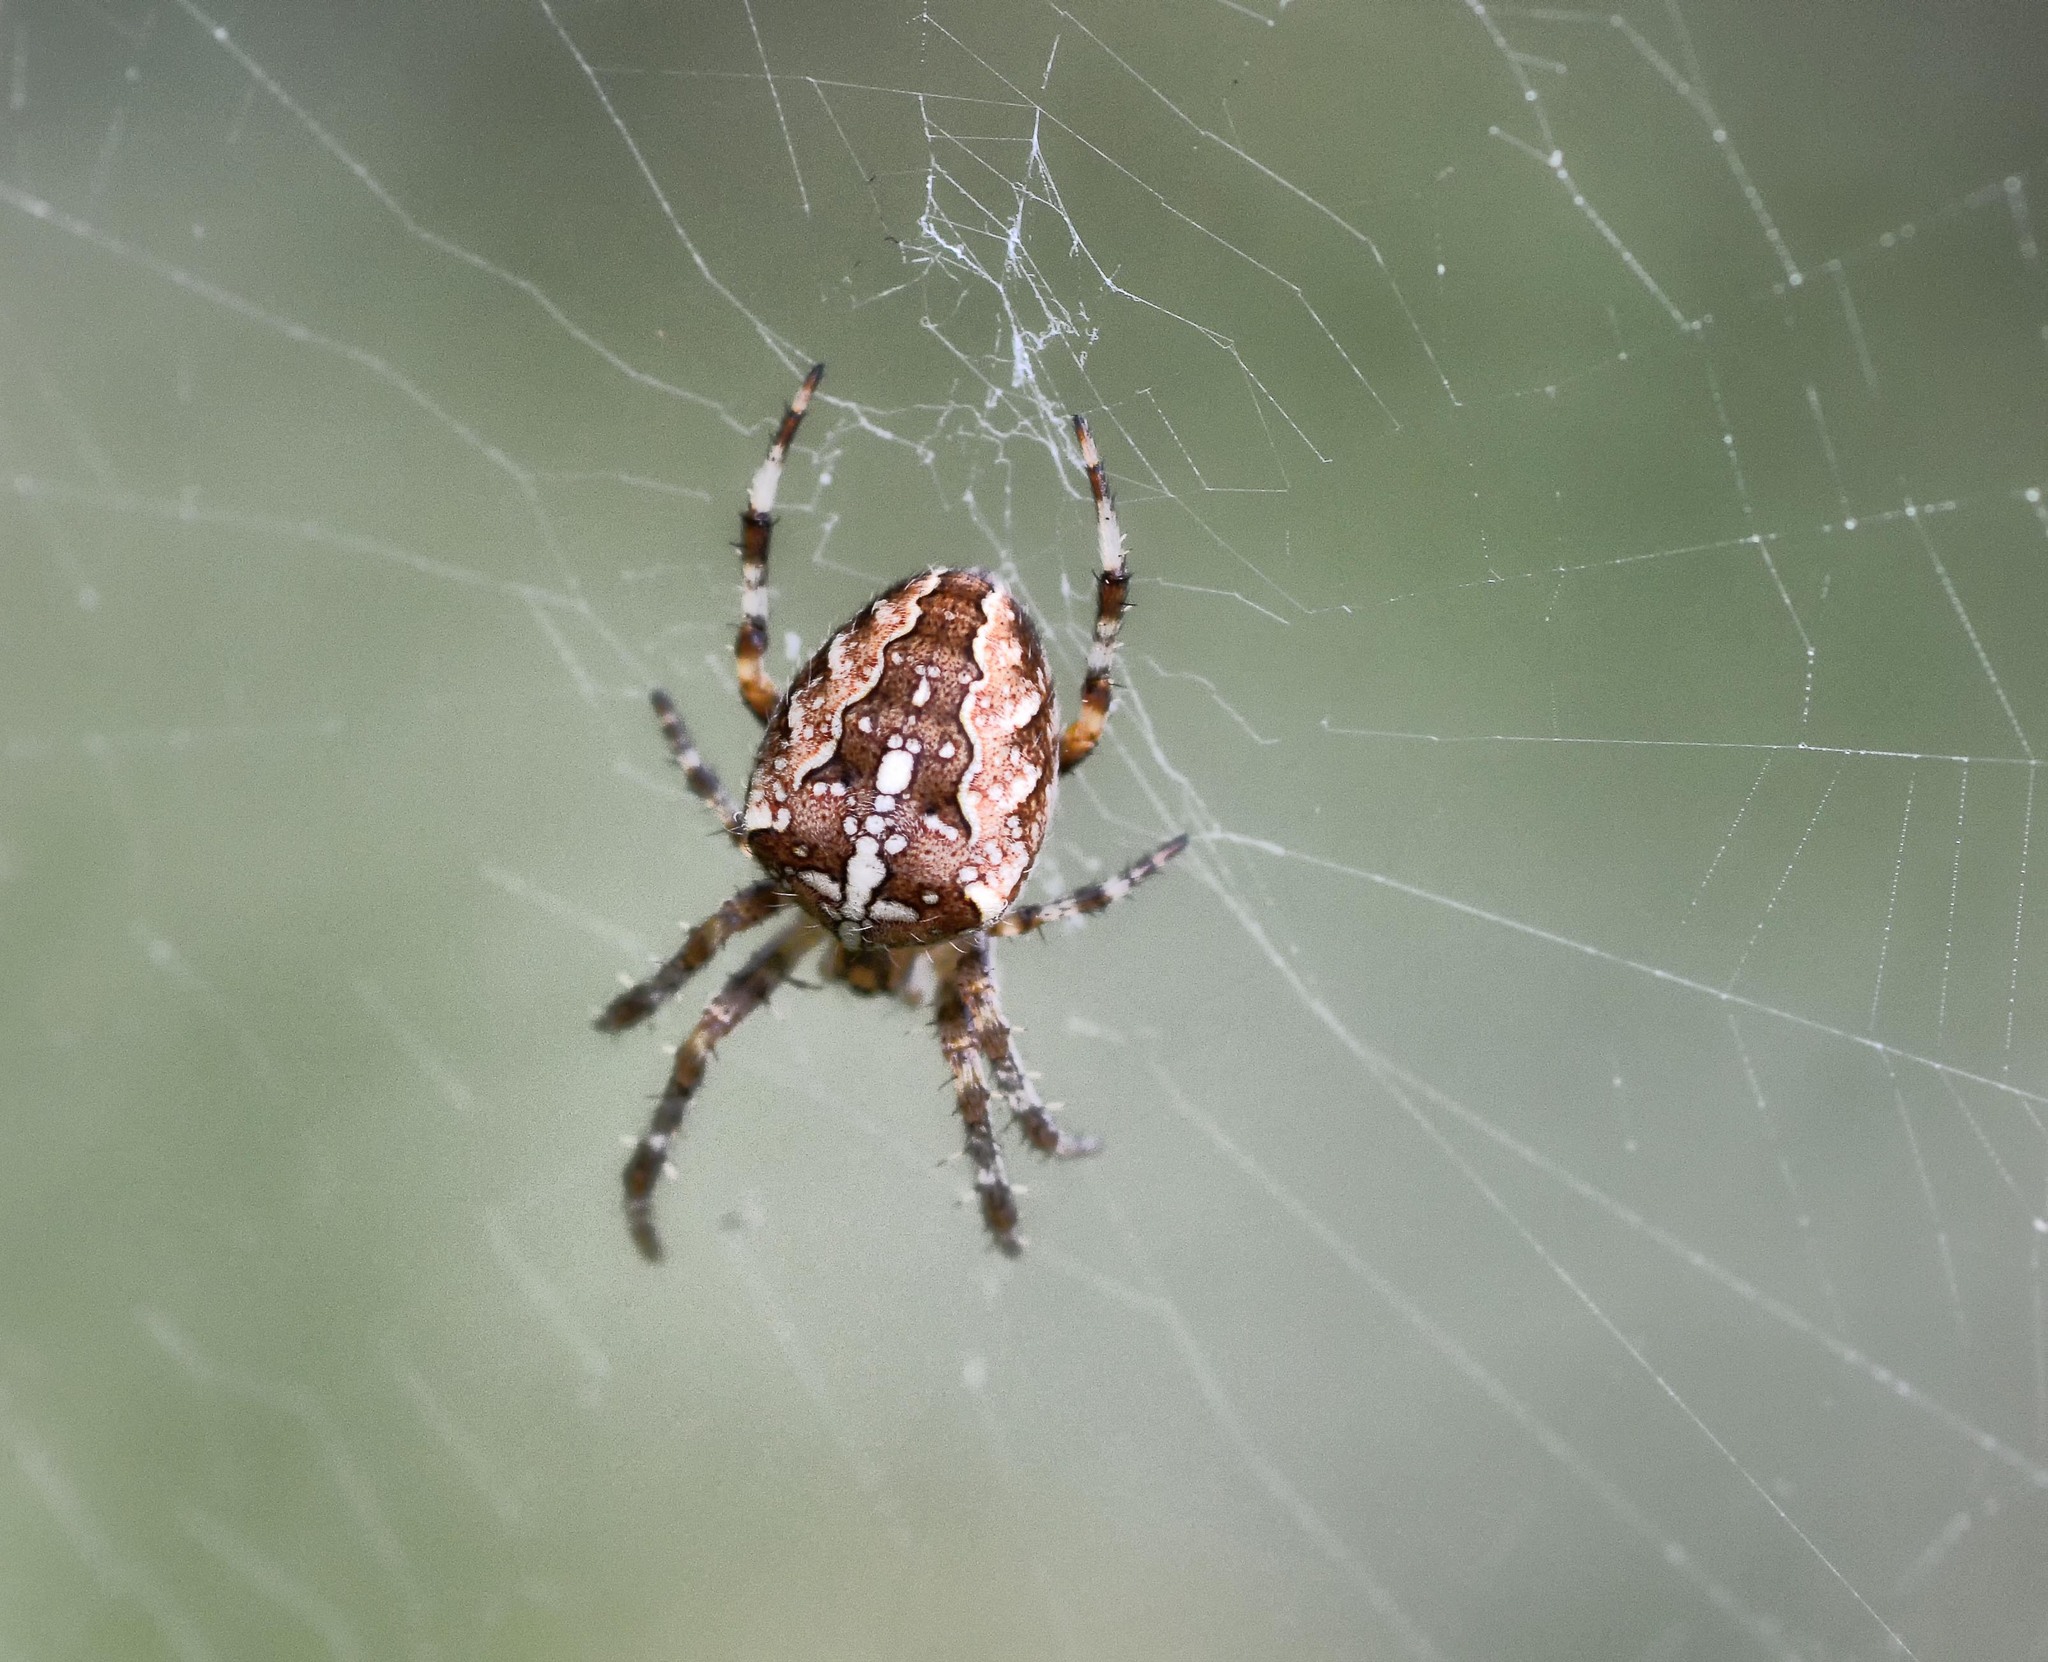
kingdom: Animalia
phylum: Arthropoda
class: Arachnida
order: Araneae
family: Araneidae
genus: Araneus
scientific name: Araneus diadematus
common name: Cross orbweaver
